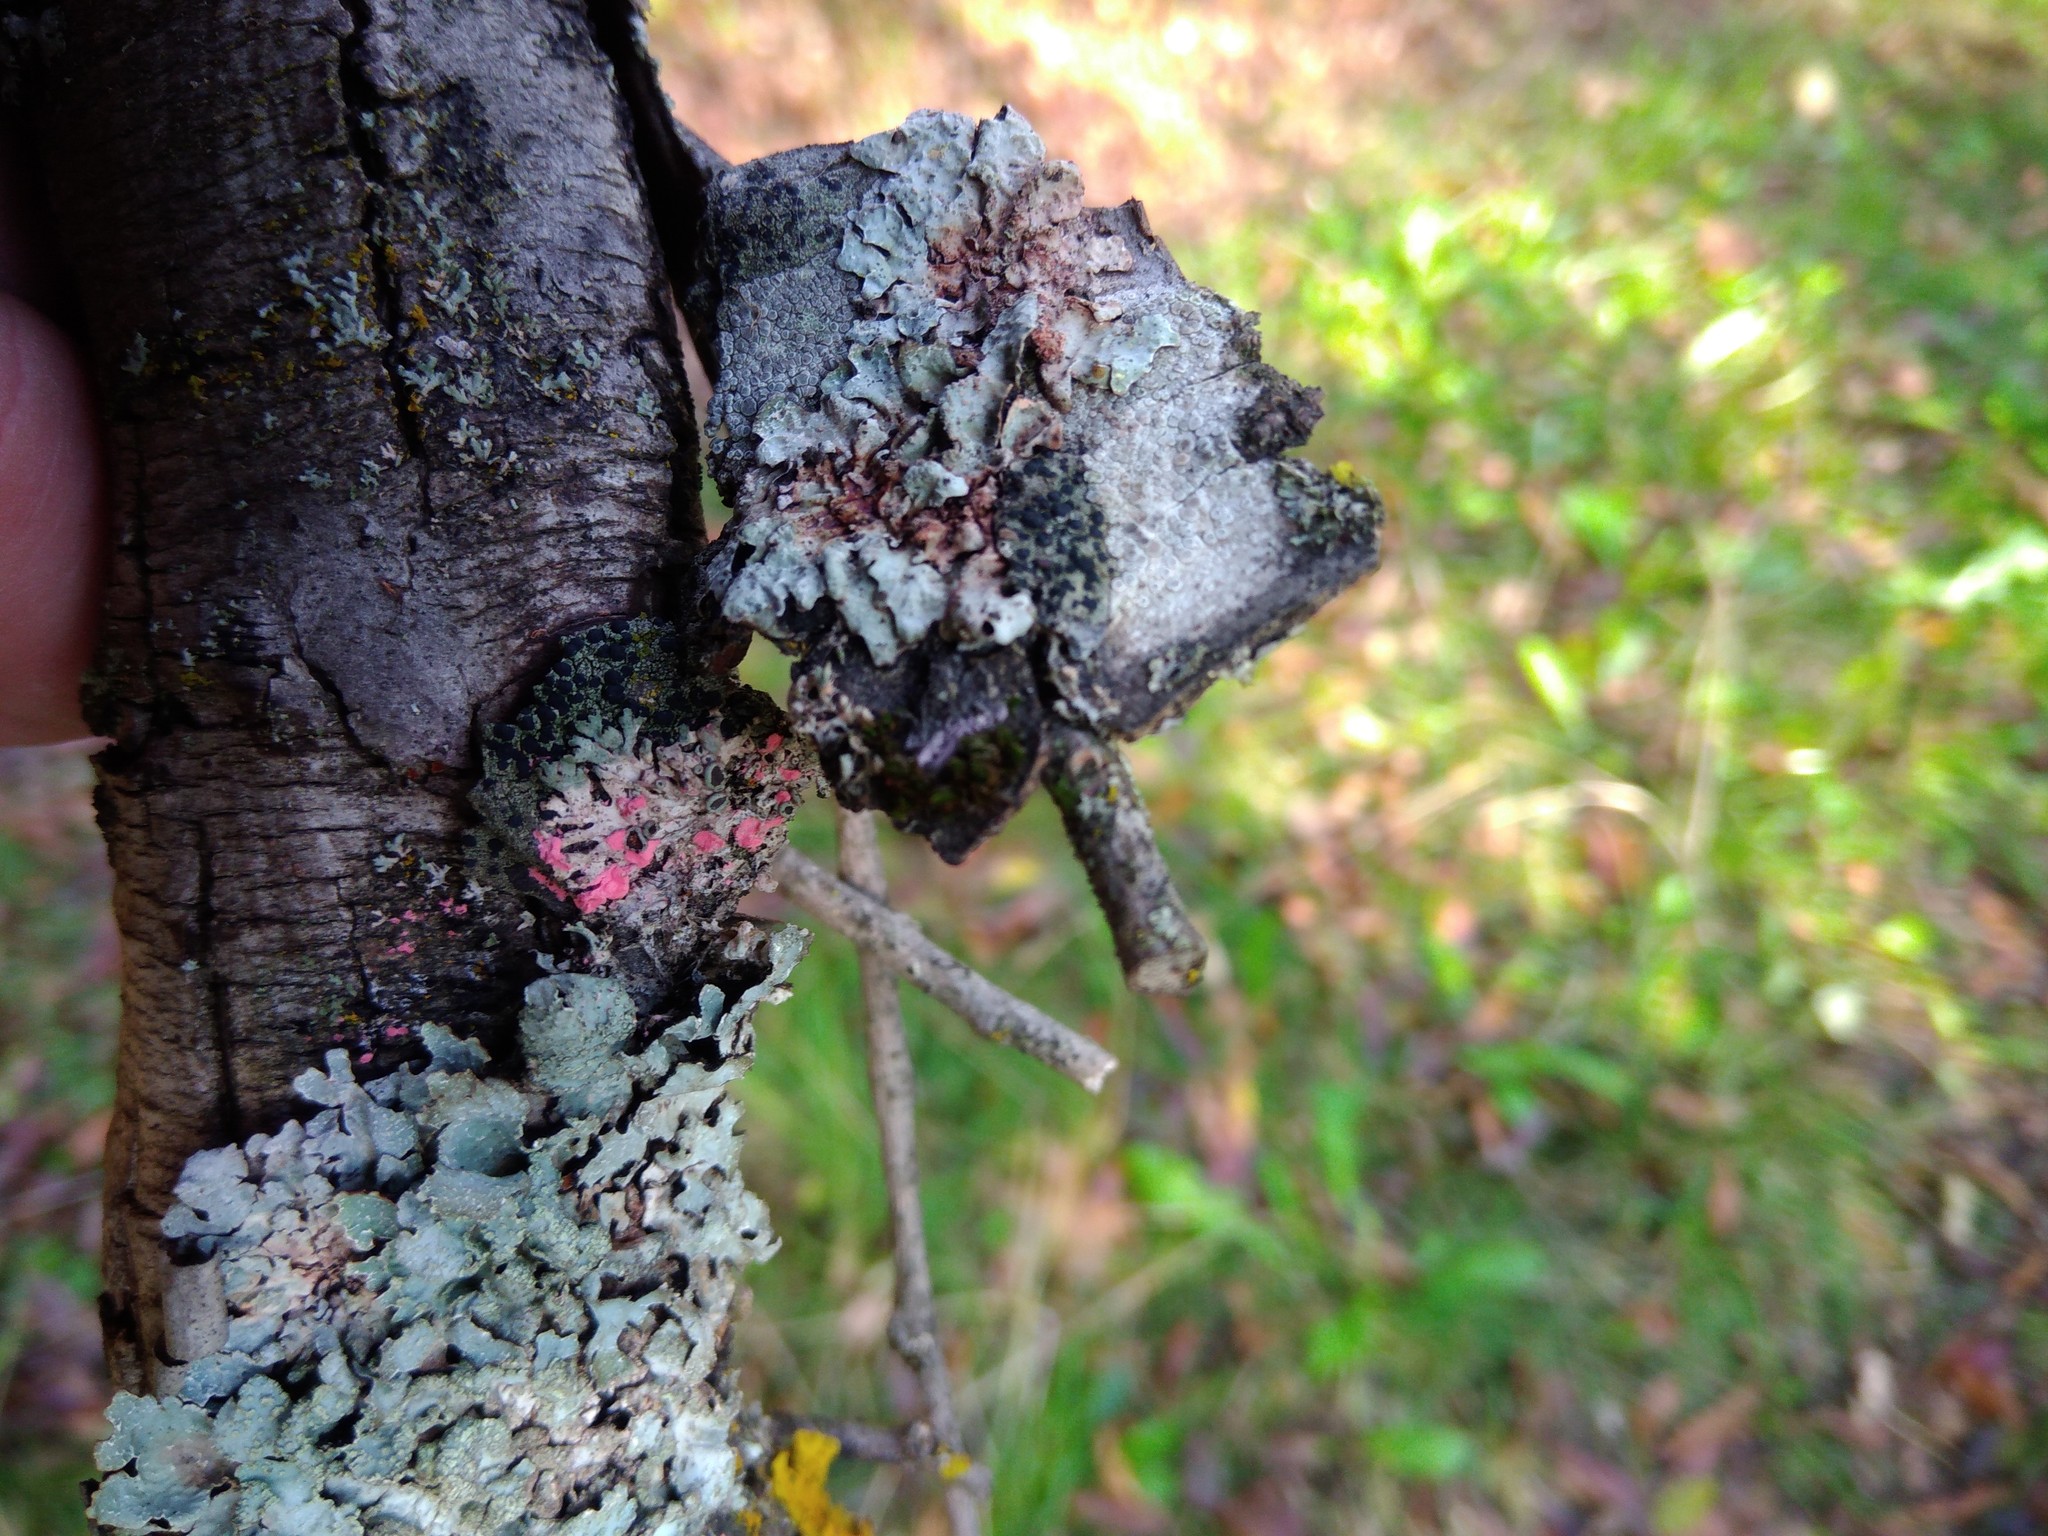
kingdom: Fungi
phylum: Ascomycota
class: Sordariomycetes
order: Hypocreales
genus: Illosporiopsis
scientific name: Illosporiopsis christiansenii
